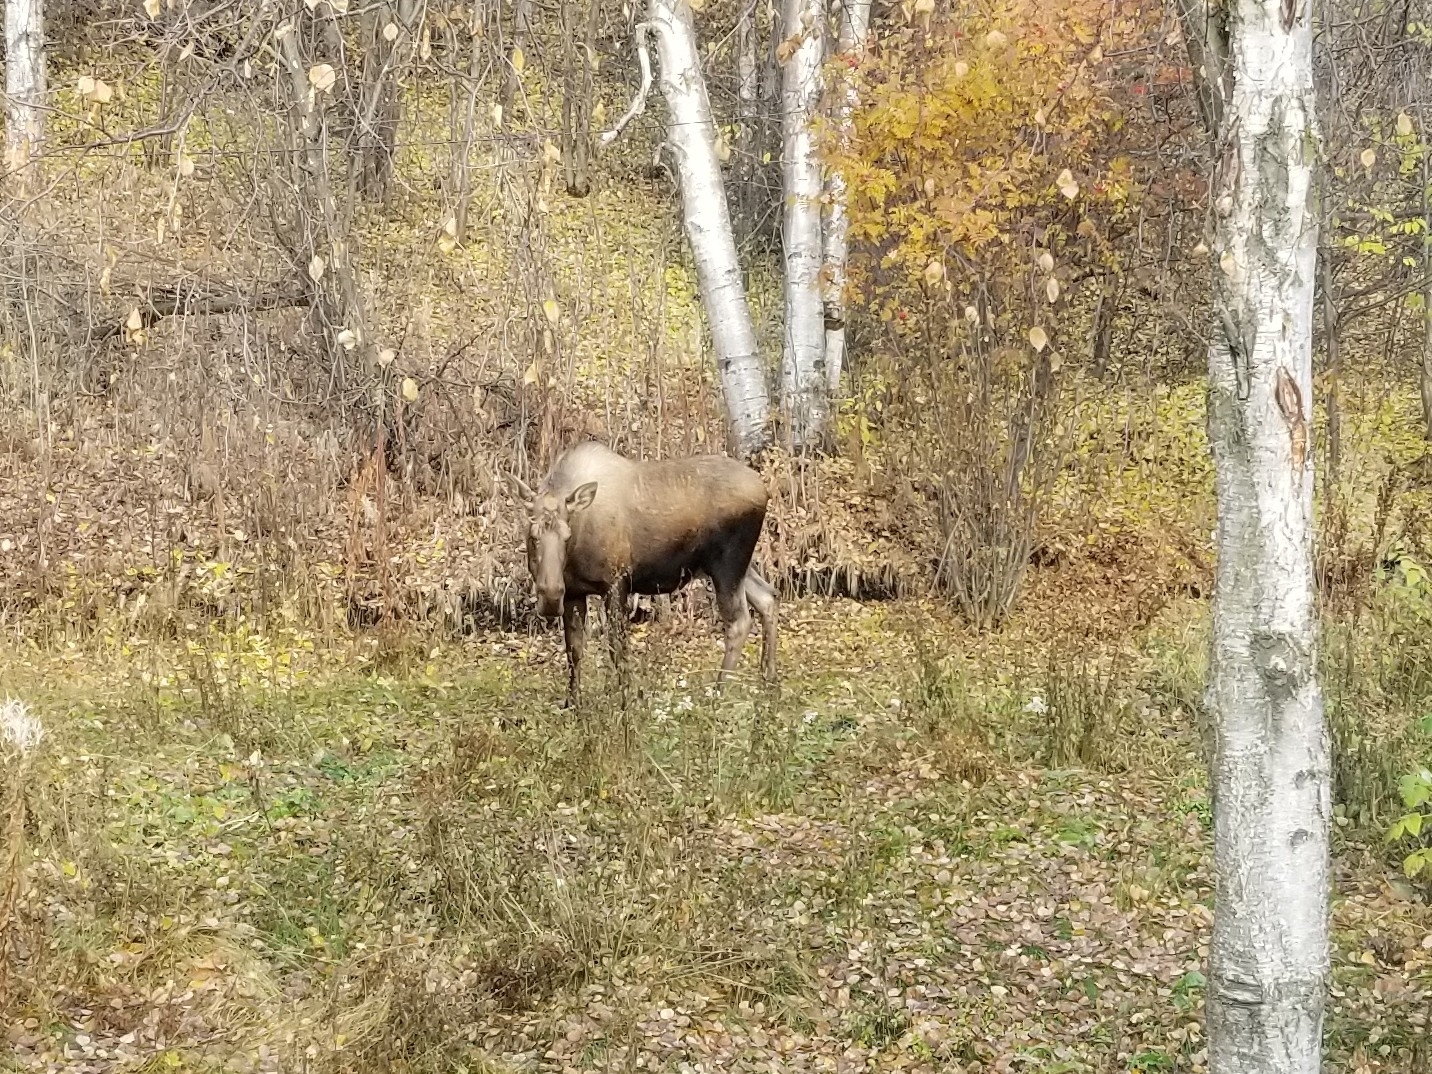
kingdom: Animalia
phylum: Chordata
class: Mammalia
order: Artiodactyla
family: Cervidae
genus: Alces
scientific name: Alces alces
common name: Moose
